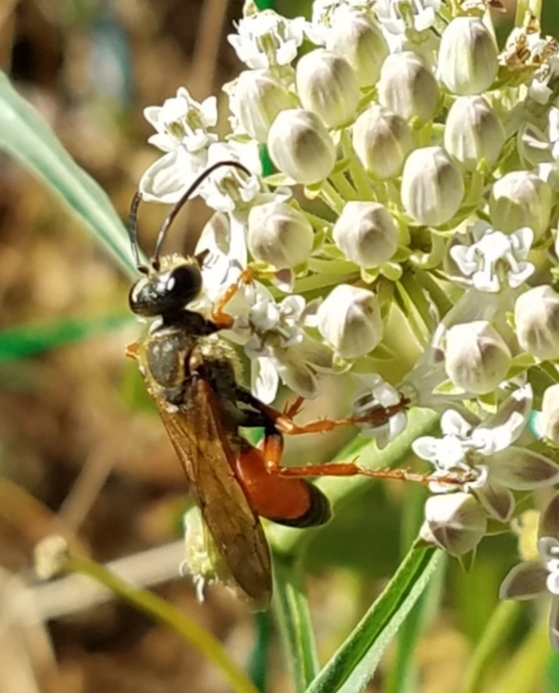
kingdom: Animalia
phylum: Arthropoda
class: Insecta
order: Hymenoptera
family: Sphecidae
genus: Sphex
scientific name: Sphex ichneumoneus
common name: Great golden digger wasp
